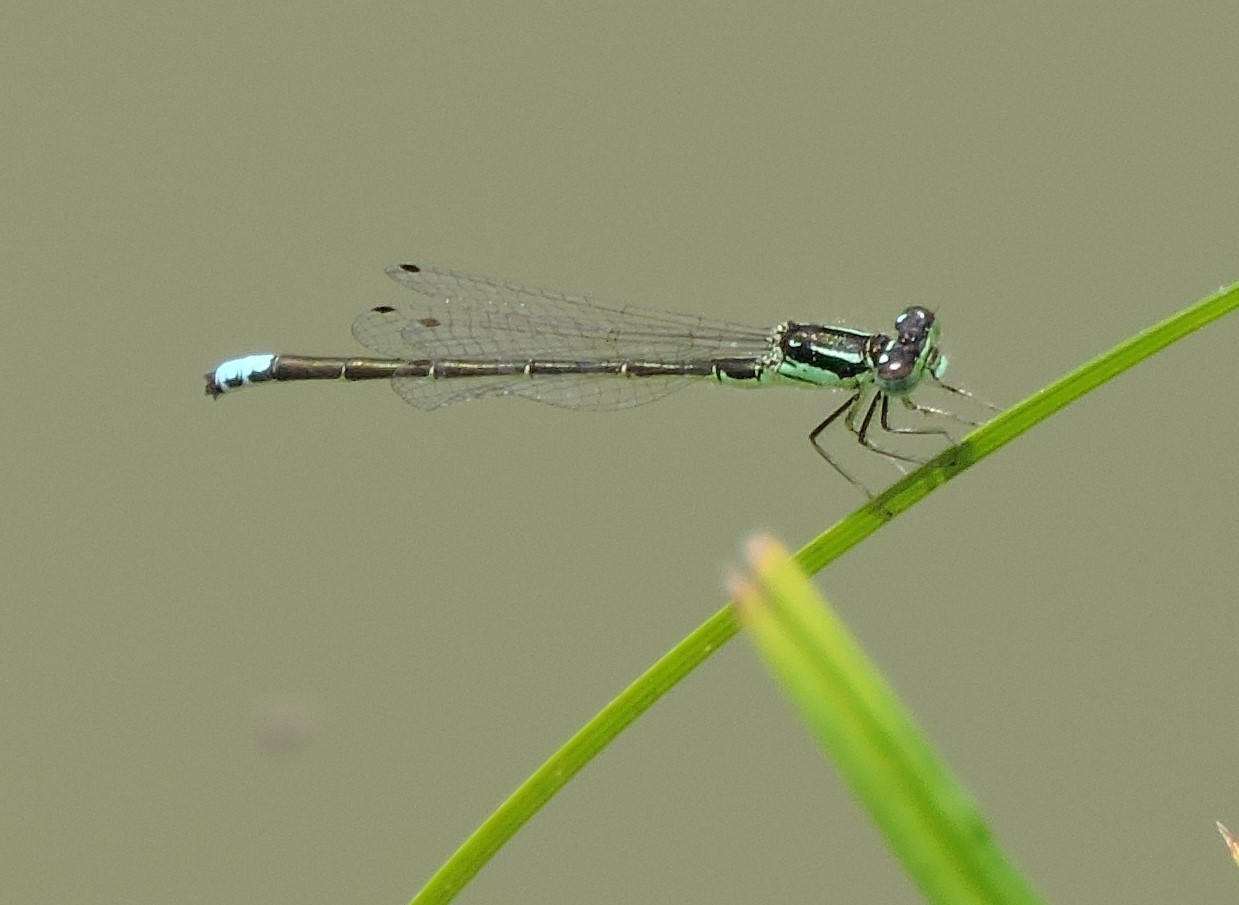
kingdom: Animalia
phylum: Arthropoda
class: Insecta
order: Odonata
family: Coenagrionidae
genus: Ischnura
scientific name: Ischnura verticalis
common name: Eastern forktail
